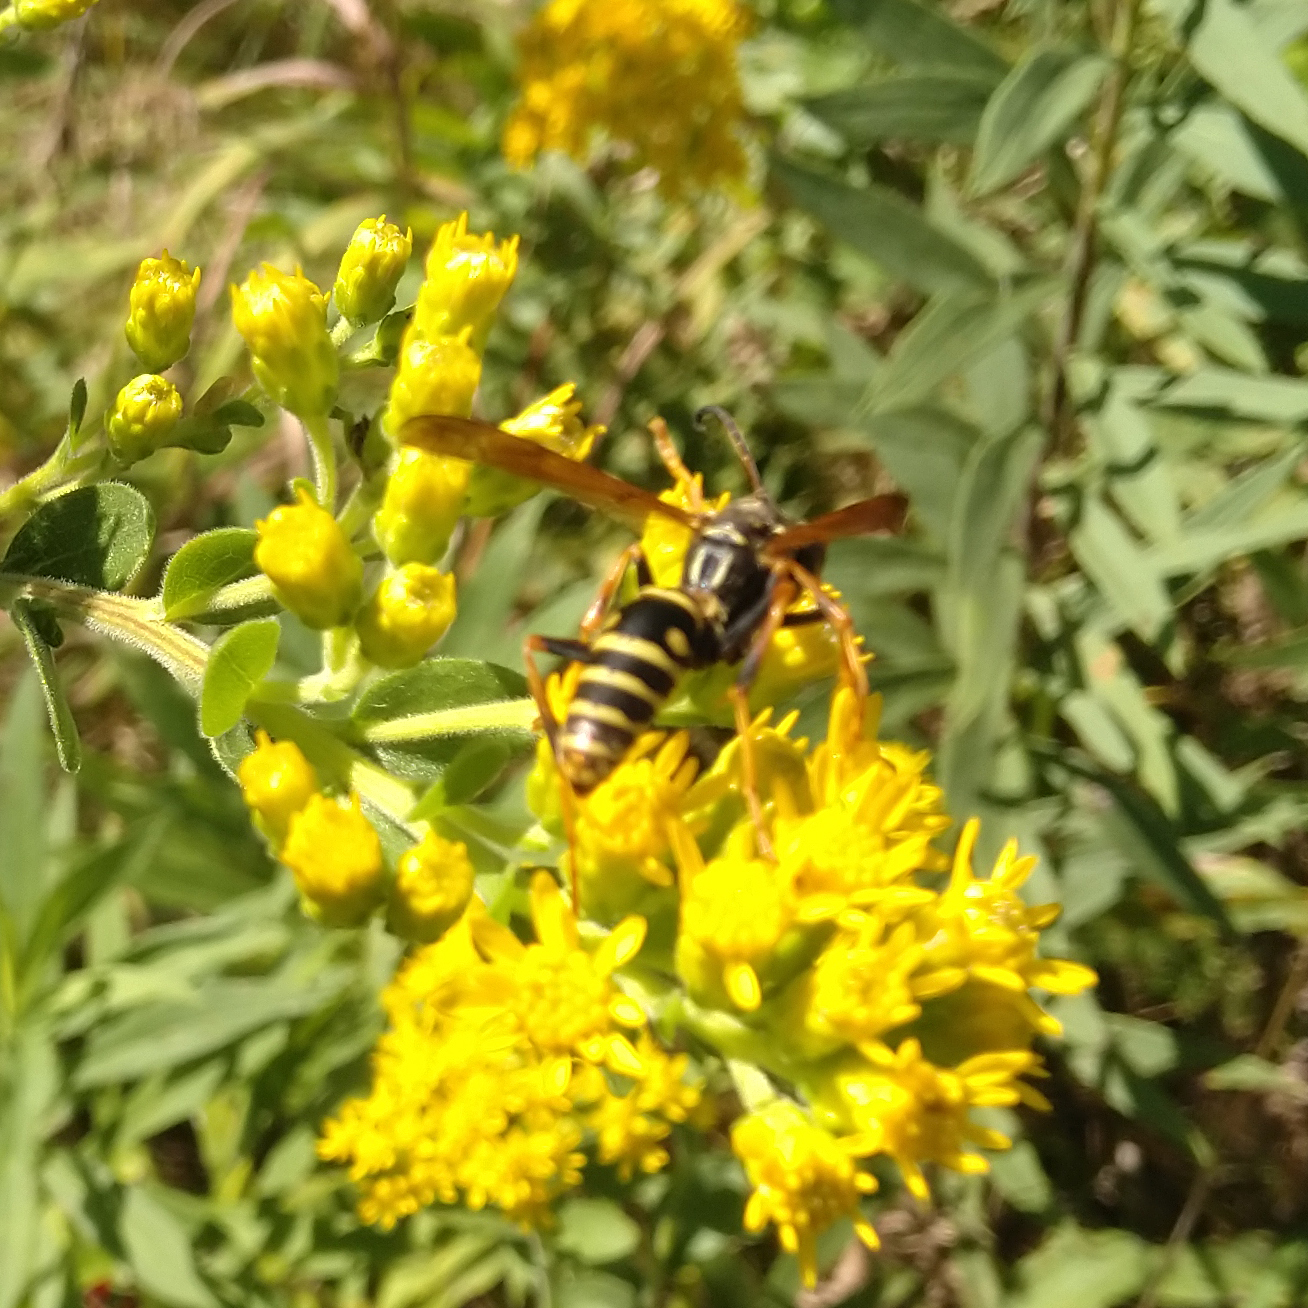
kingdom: Animalia
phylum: Arthropoda
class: Insecta
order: Hymenoptera
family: Eumenidae
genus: Polistes
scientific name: Polistes fuscatus
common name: Dark paper wasp
